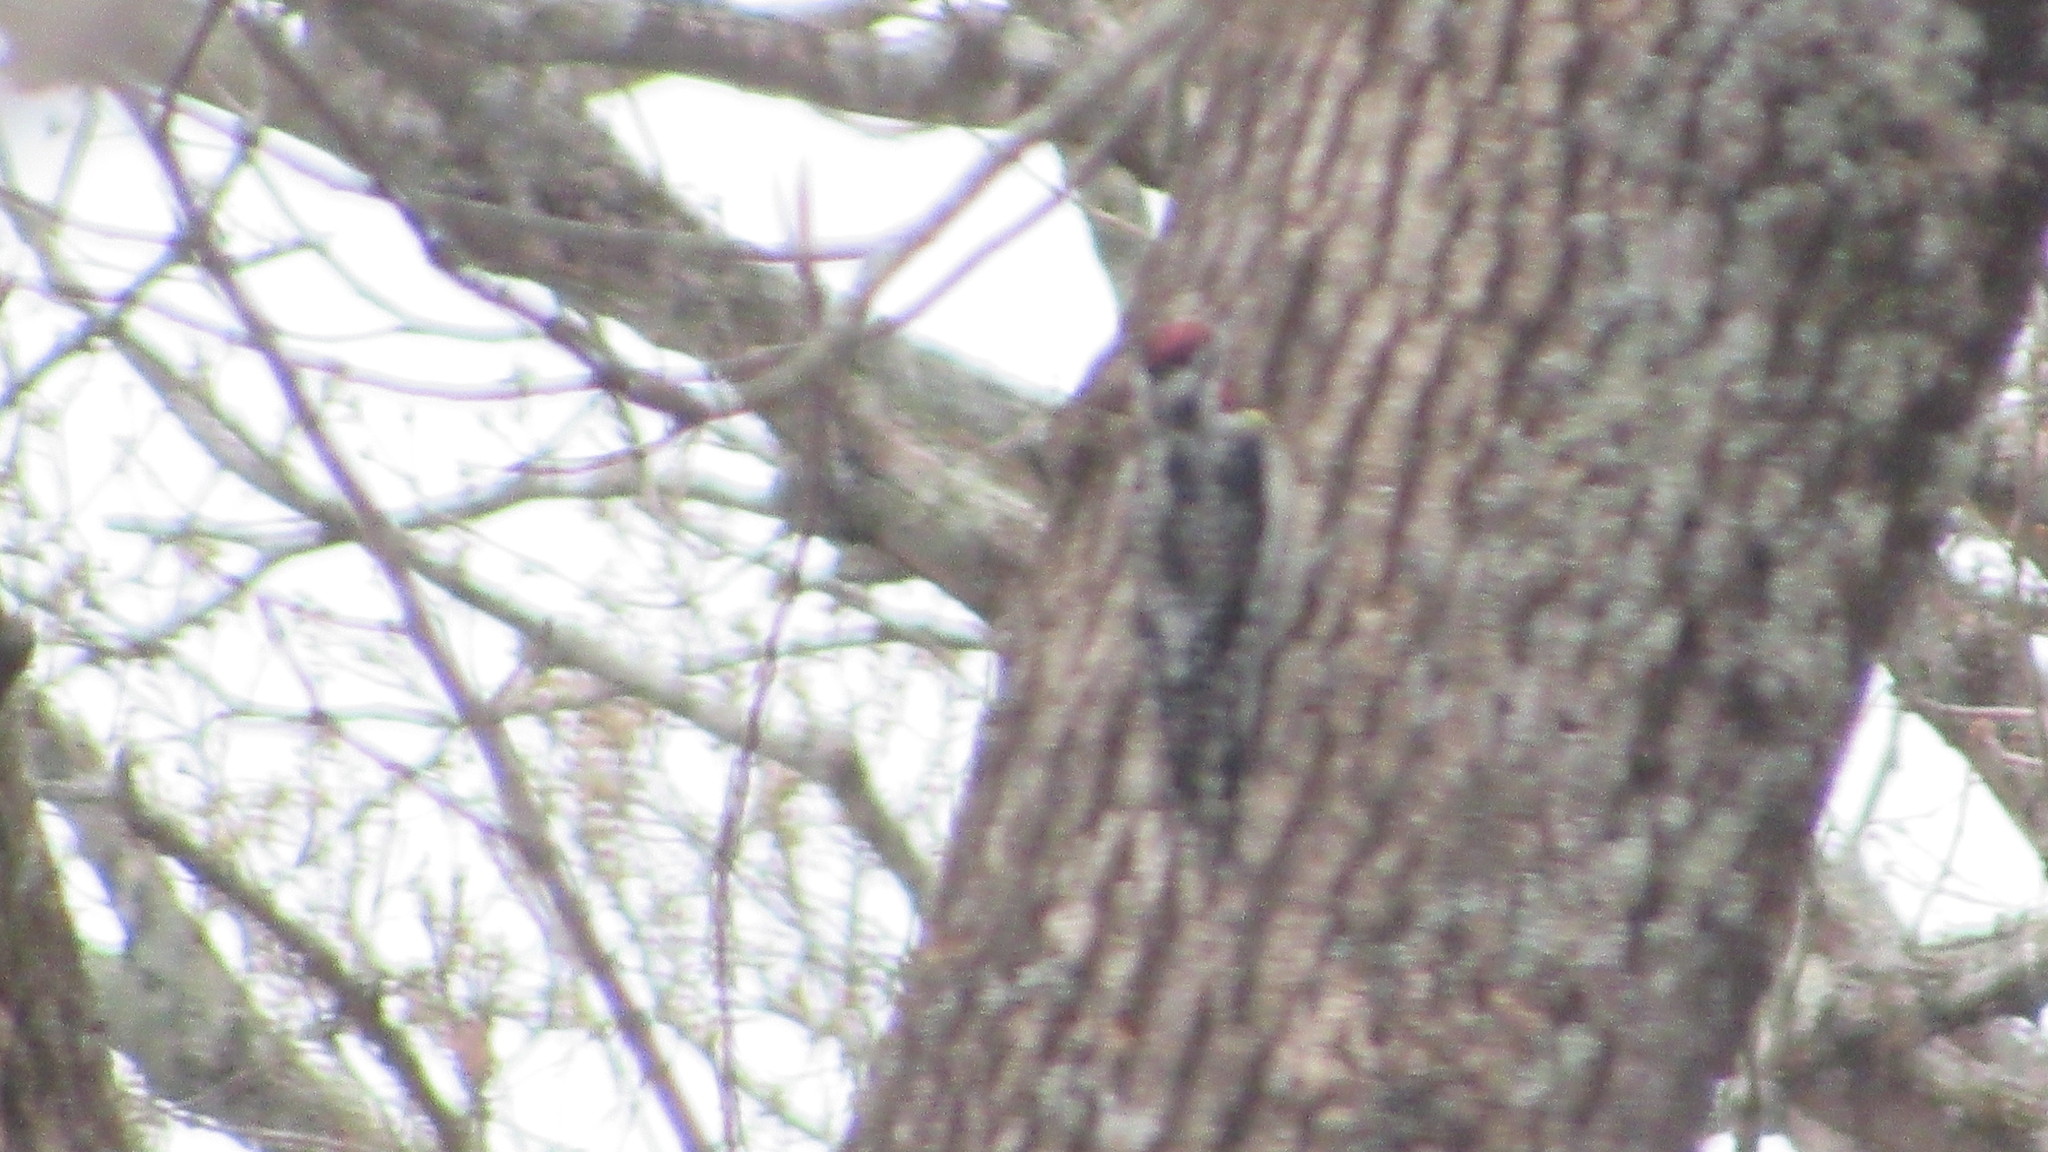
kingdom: Animalia
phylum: Chordata
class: Aves
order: Piciformes
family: Picidae
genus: Sphyrapicus
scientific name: Sphyrapicus varius
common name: Yellow-bellied sapsucker
